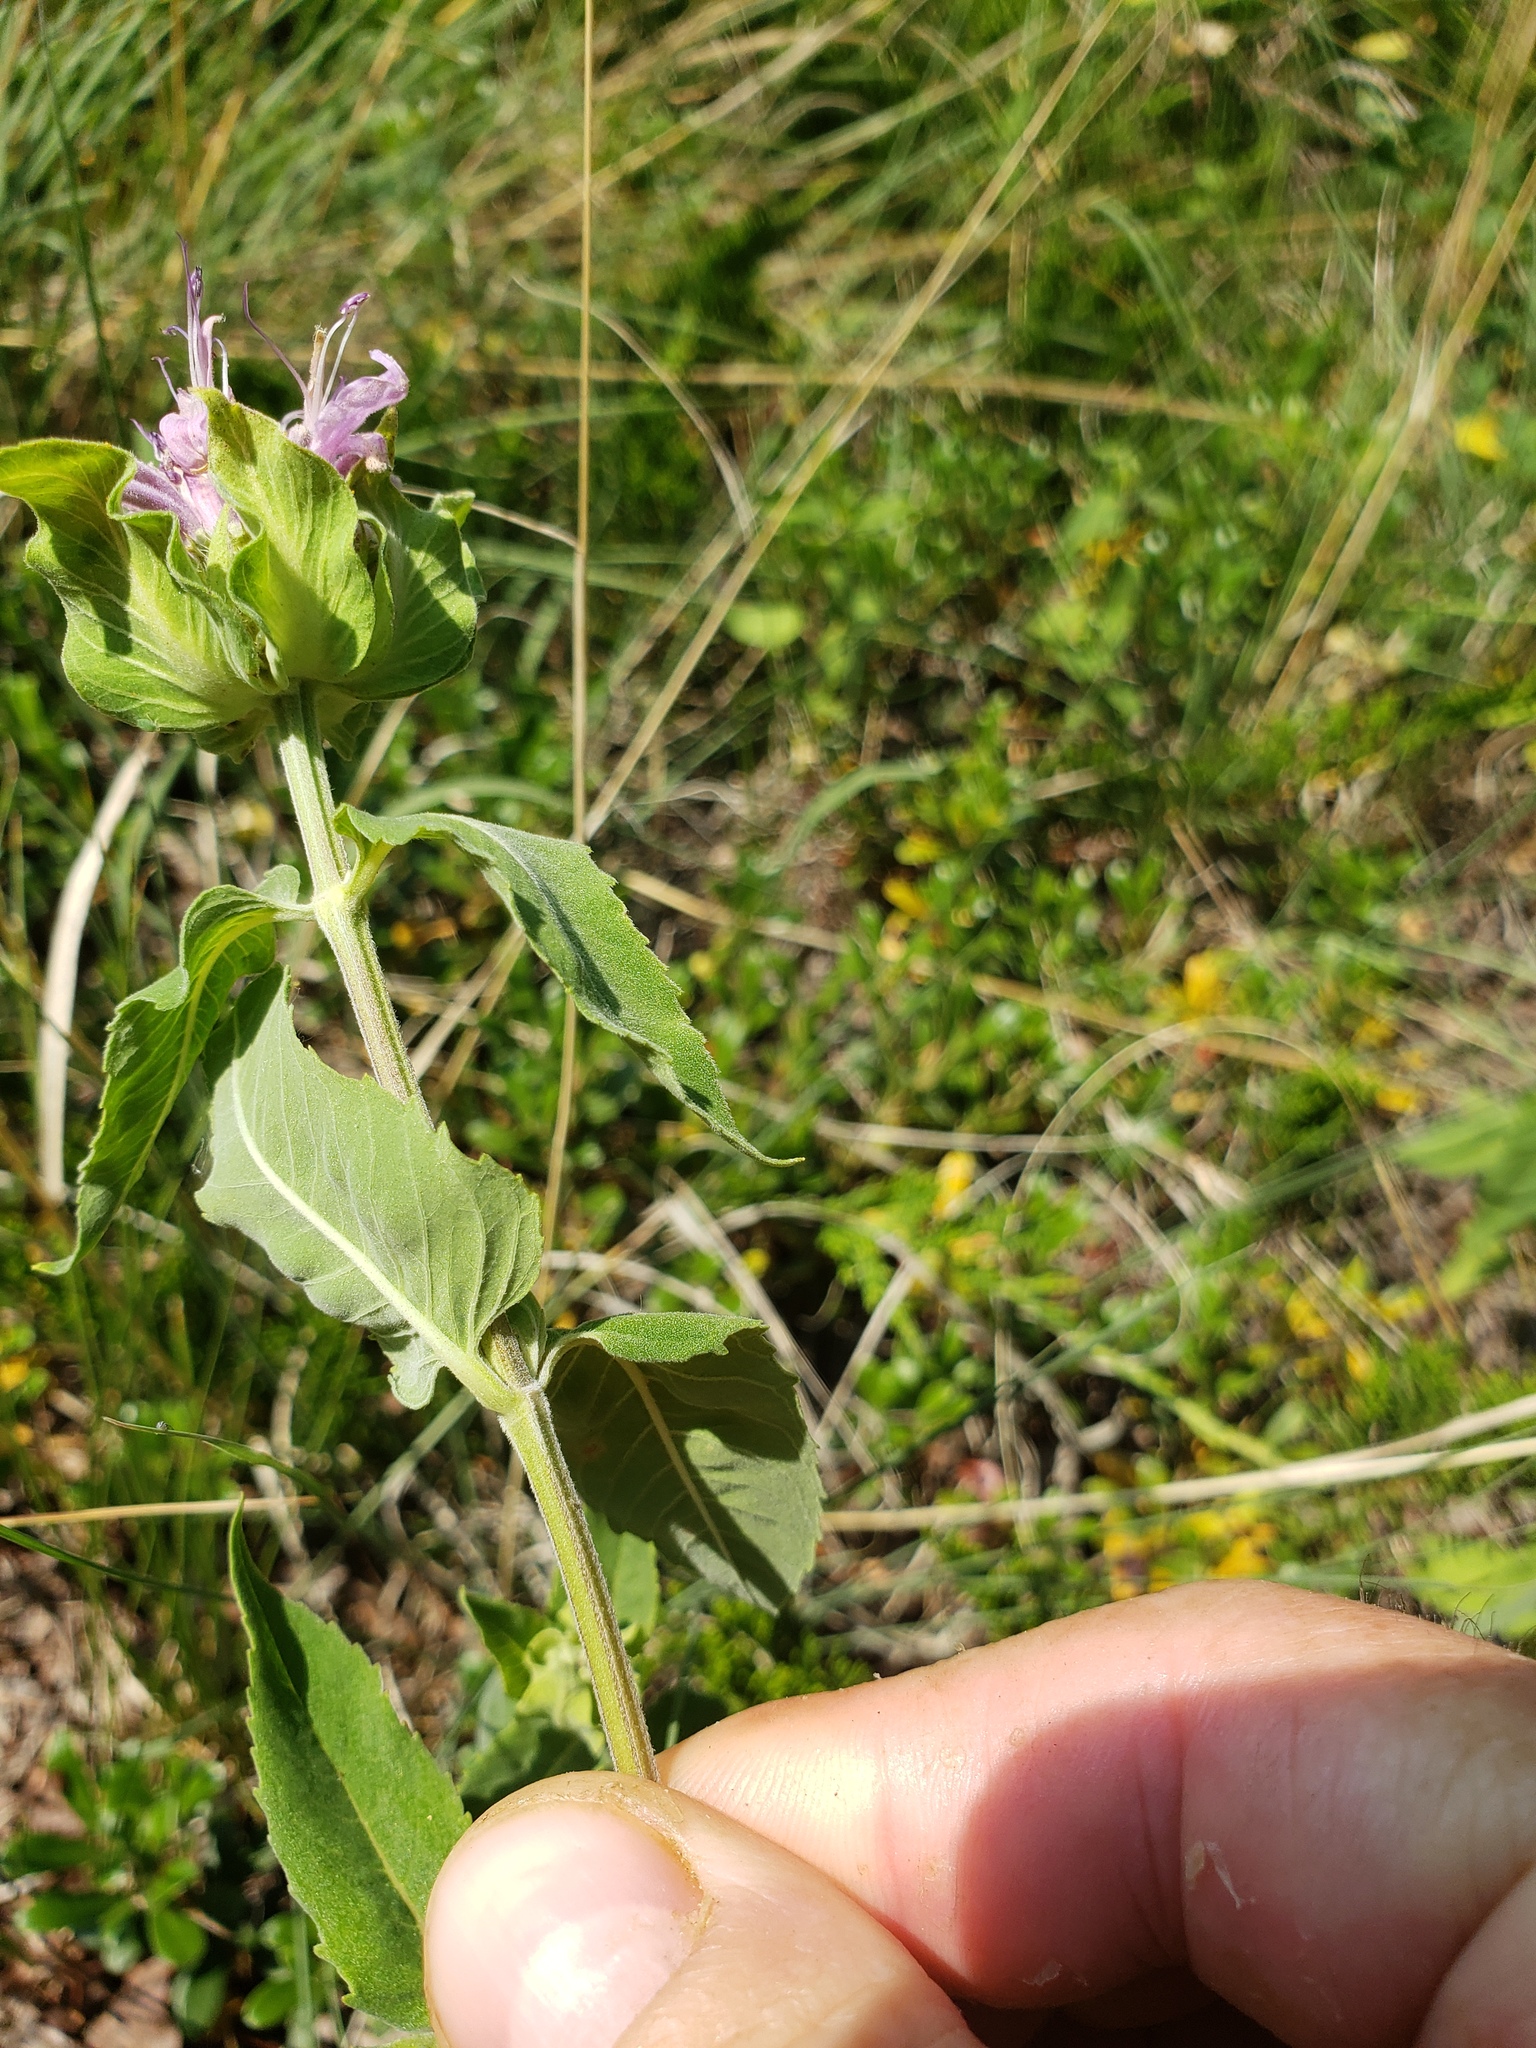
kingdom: Plantae
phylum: Tracheophyta
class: Magnoliopsida
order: Lamiales
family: Lamiaceae
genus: Monarda
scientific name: Monarda fistulosa
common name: Purple beebalm
